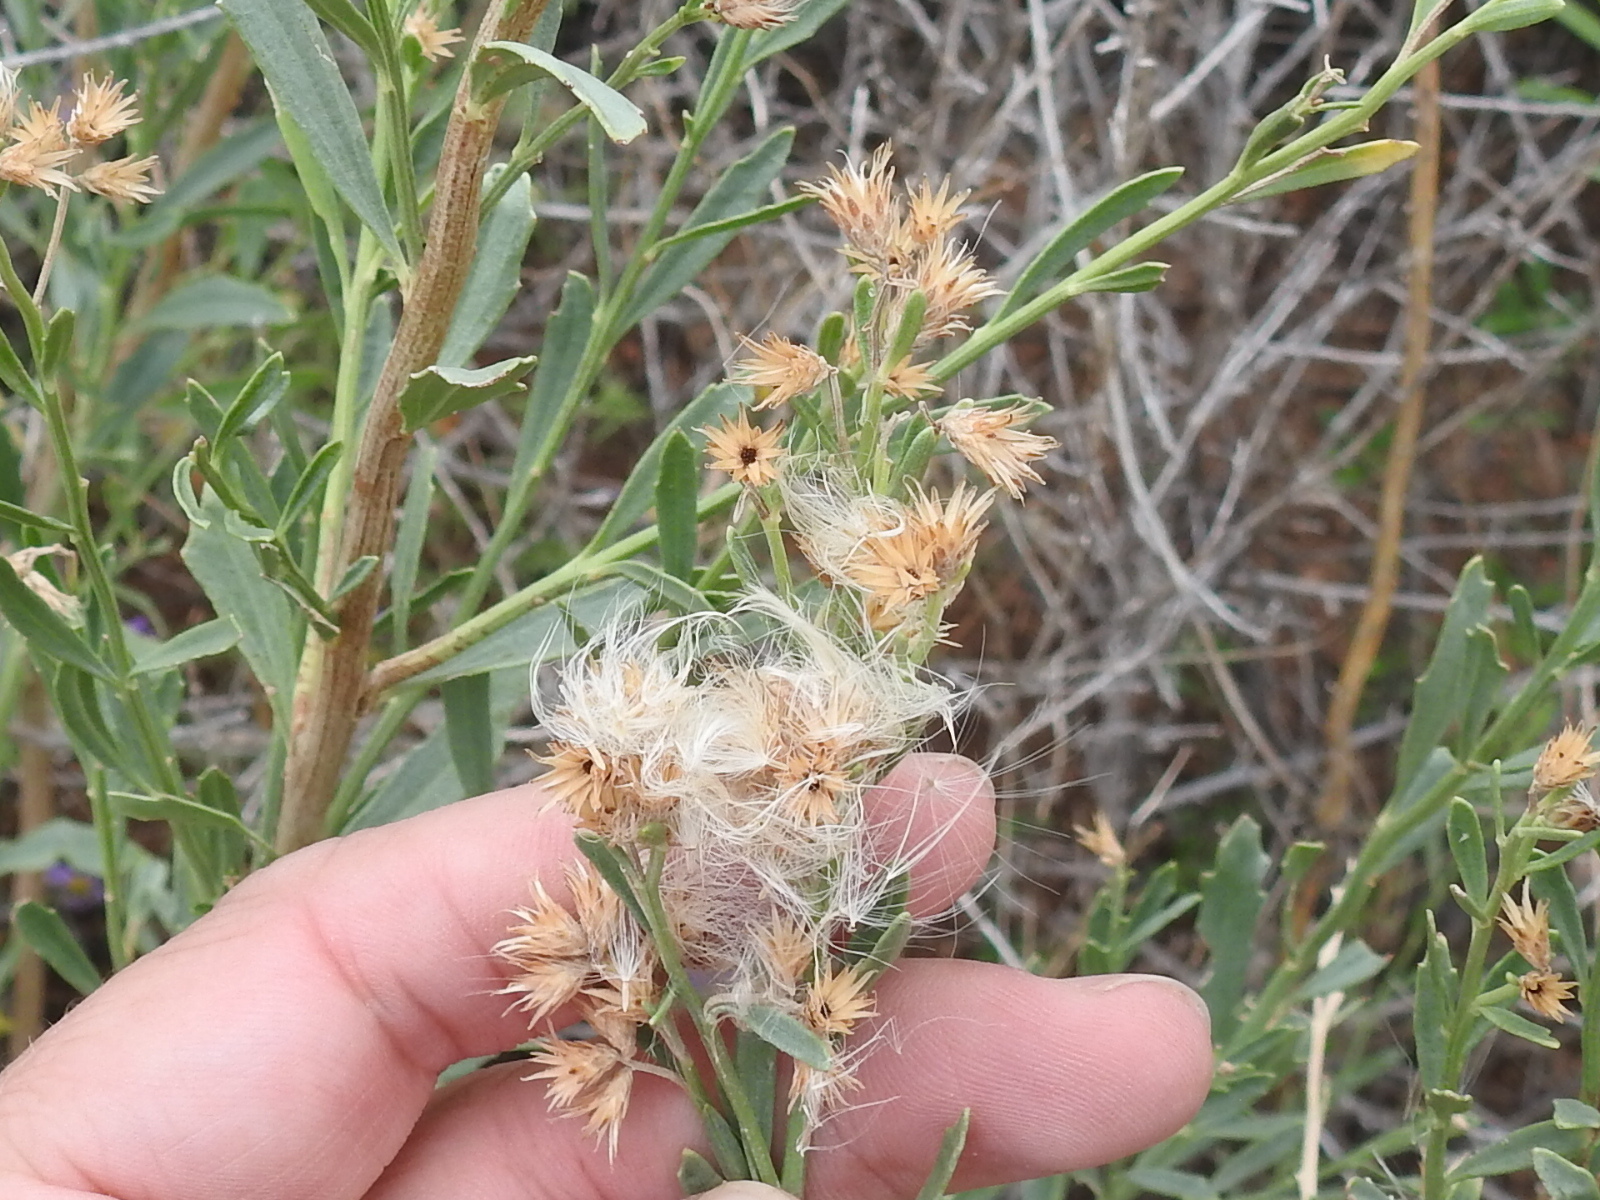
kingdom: Plantae
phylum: Tracheophyta
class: Magnoliopsida
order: Asterales
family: Asteraceae
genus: Baccharis
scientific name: Baccharis salicina
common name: Willow baccharis
